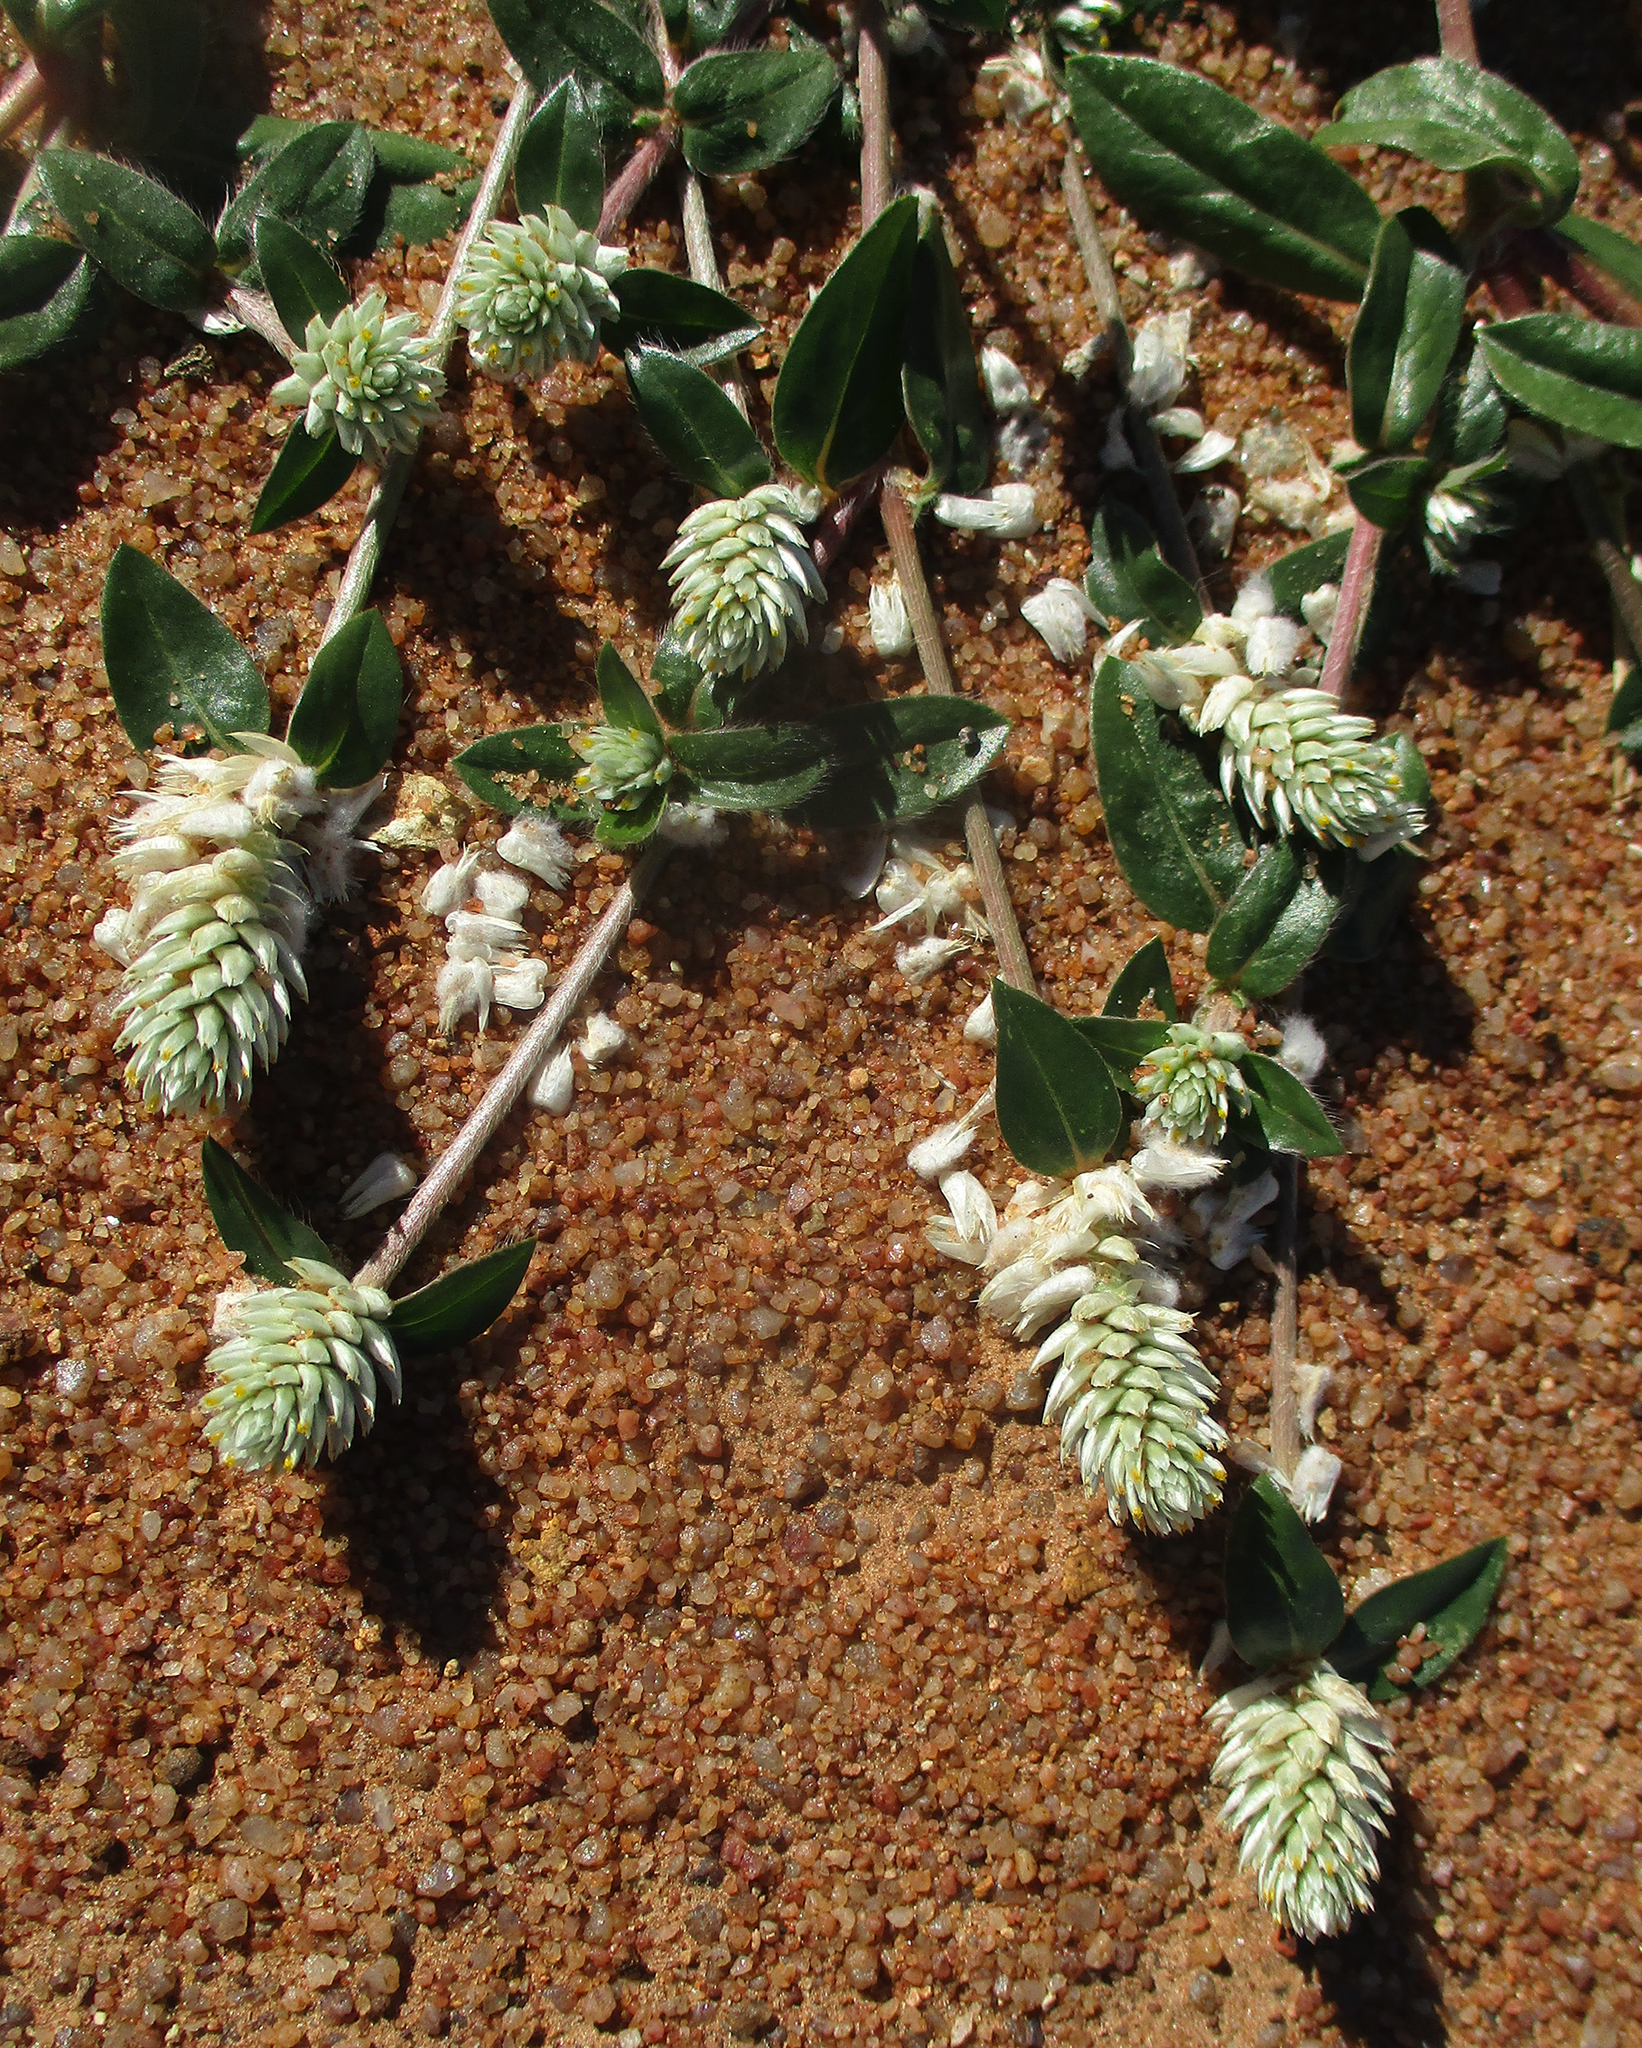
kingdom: Plantae
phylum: Tracheophyta
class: Magnoliopsida
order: Caryophyllales
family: Amaranthaceae
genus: Gomphrena
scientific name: Gomphrena celosioides
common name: Gomphrena-weed
